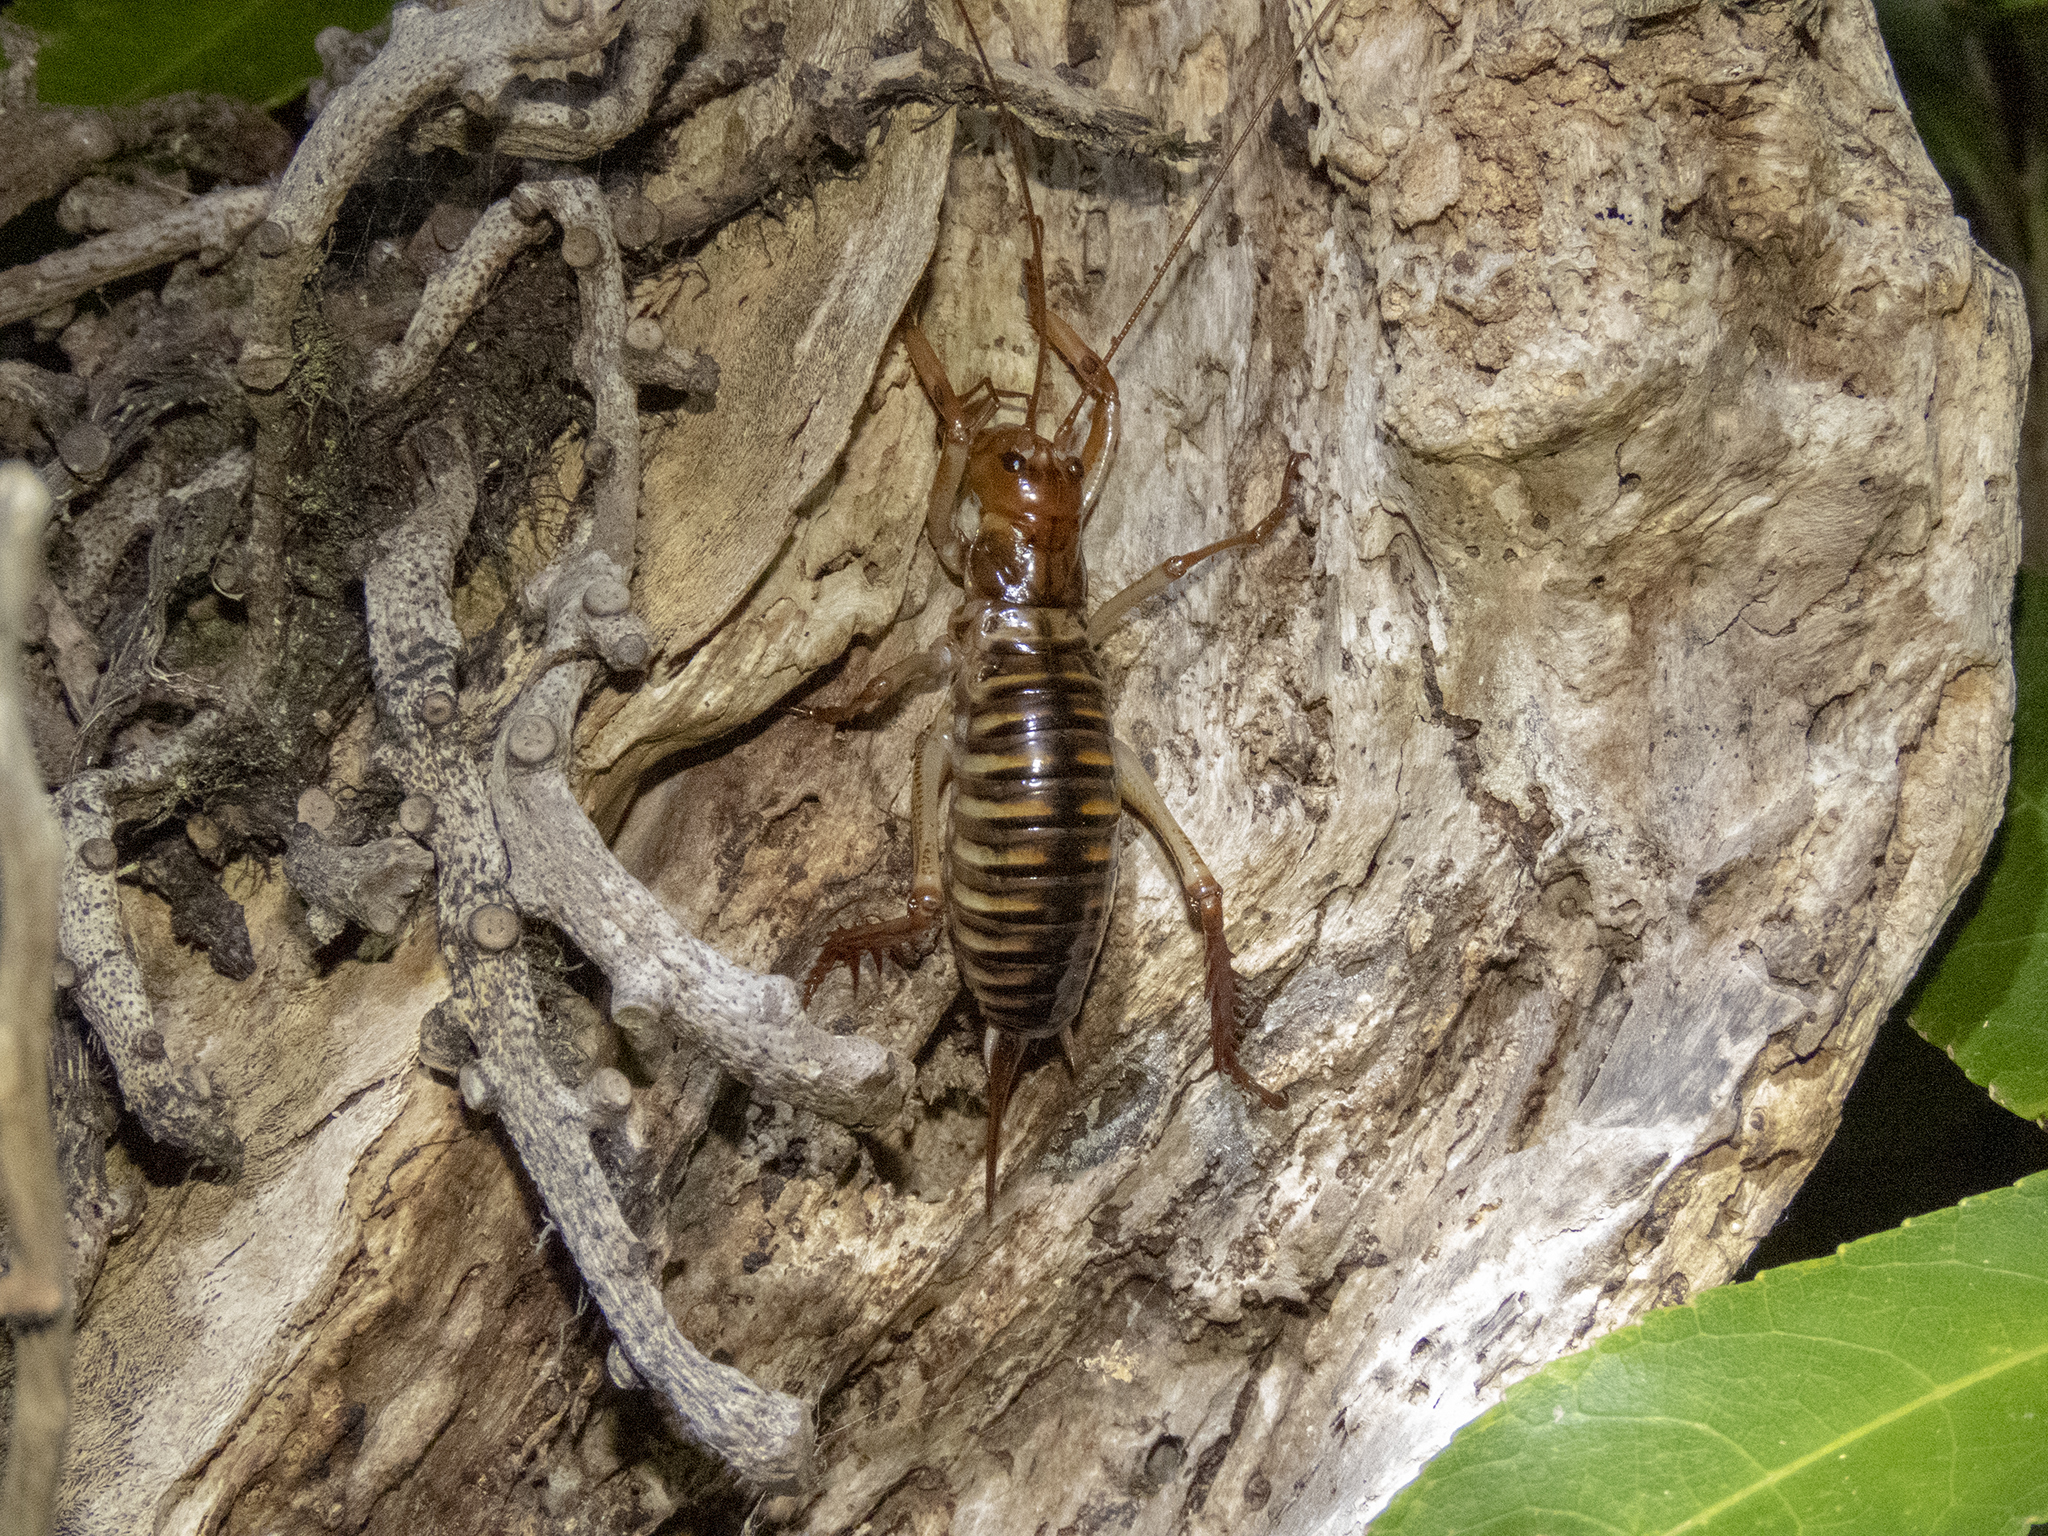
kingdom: Animalia
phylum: Arthropoda
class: Insecta
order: Orthoptera
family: Anostostomatidae
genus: Hemideina
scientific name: Hemideina crassidens
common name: Wellington tree weta
